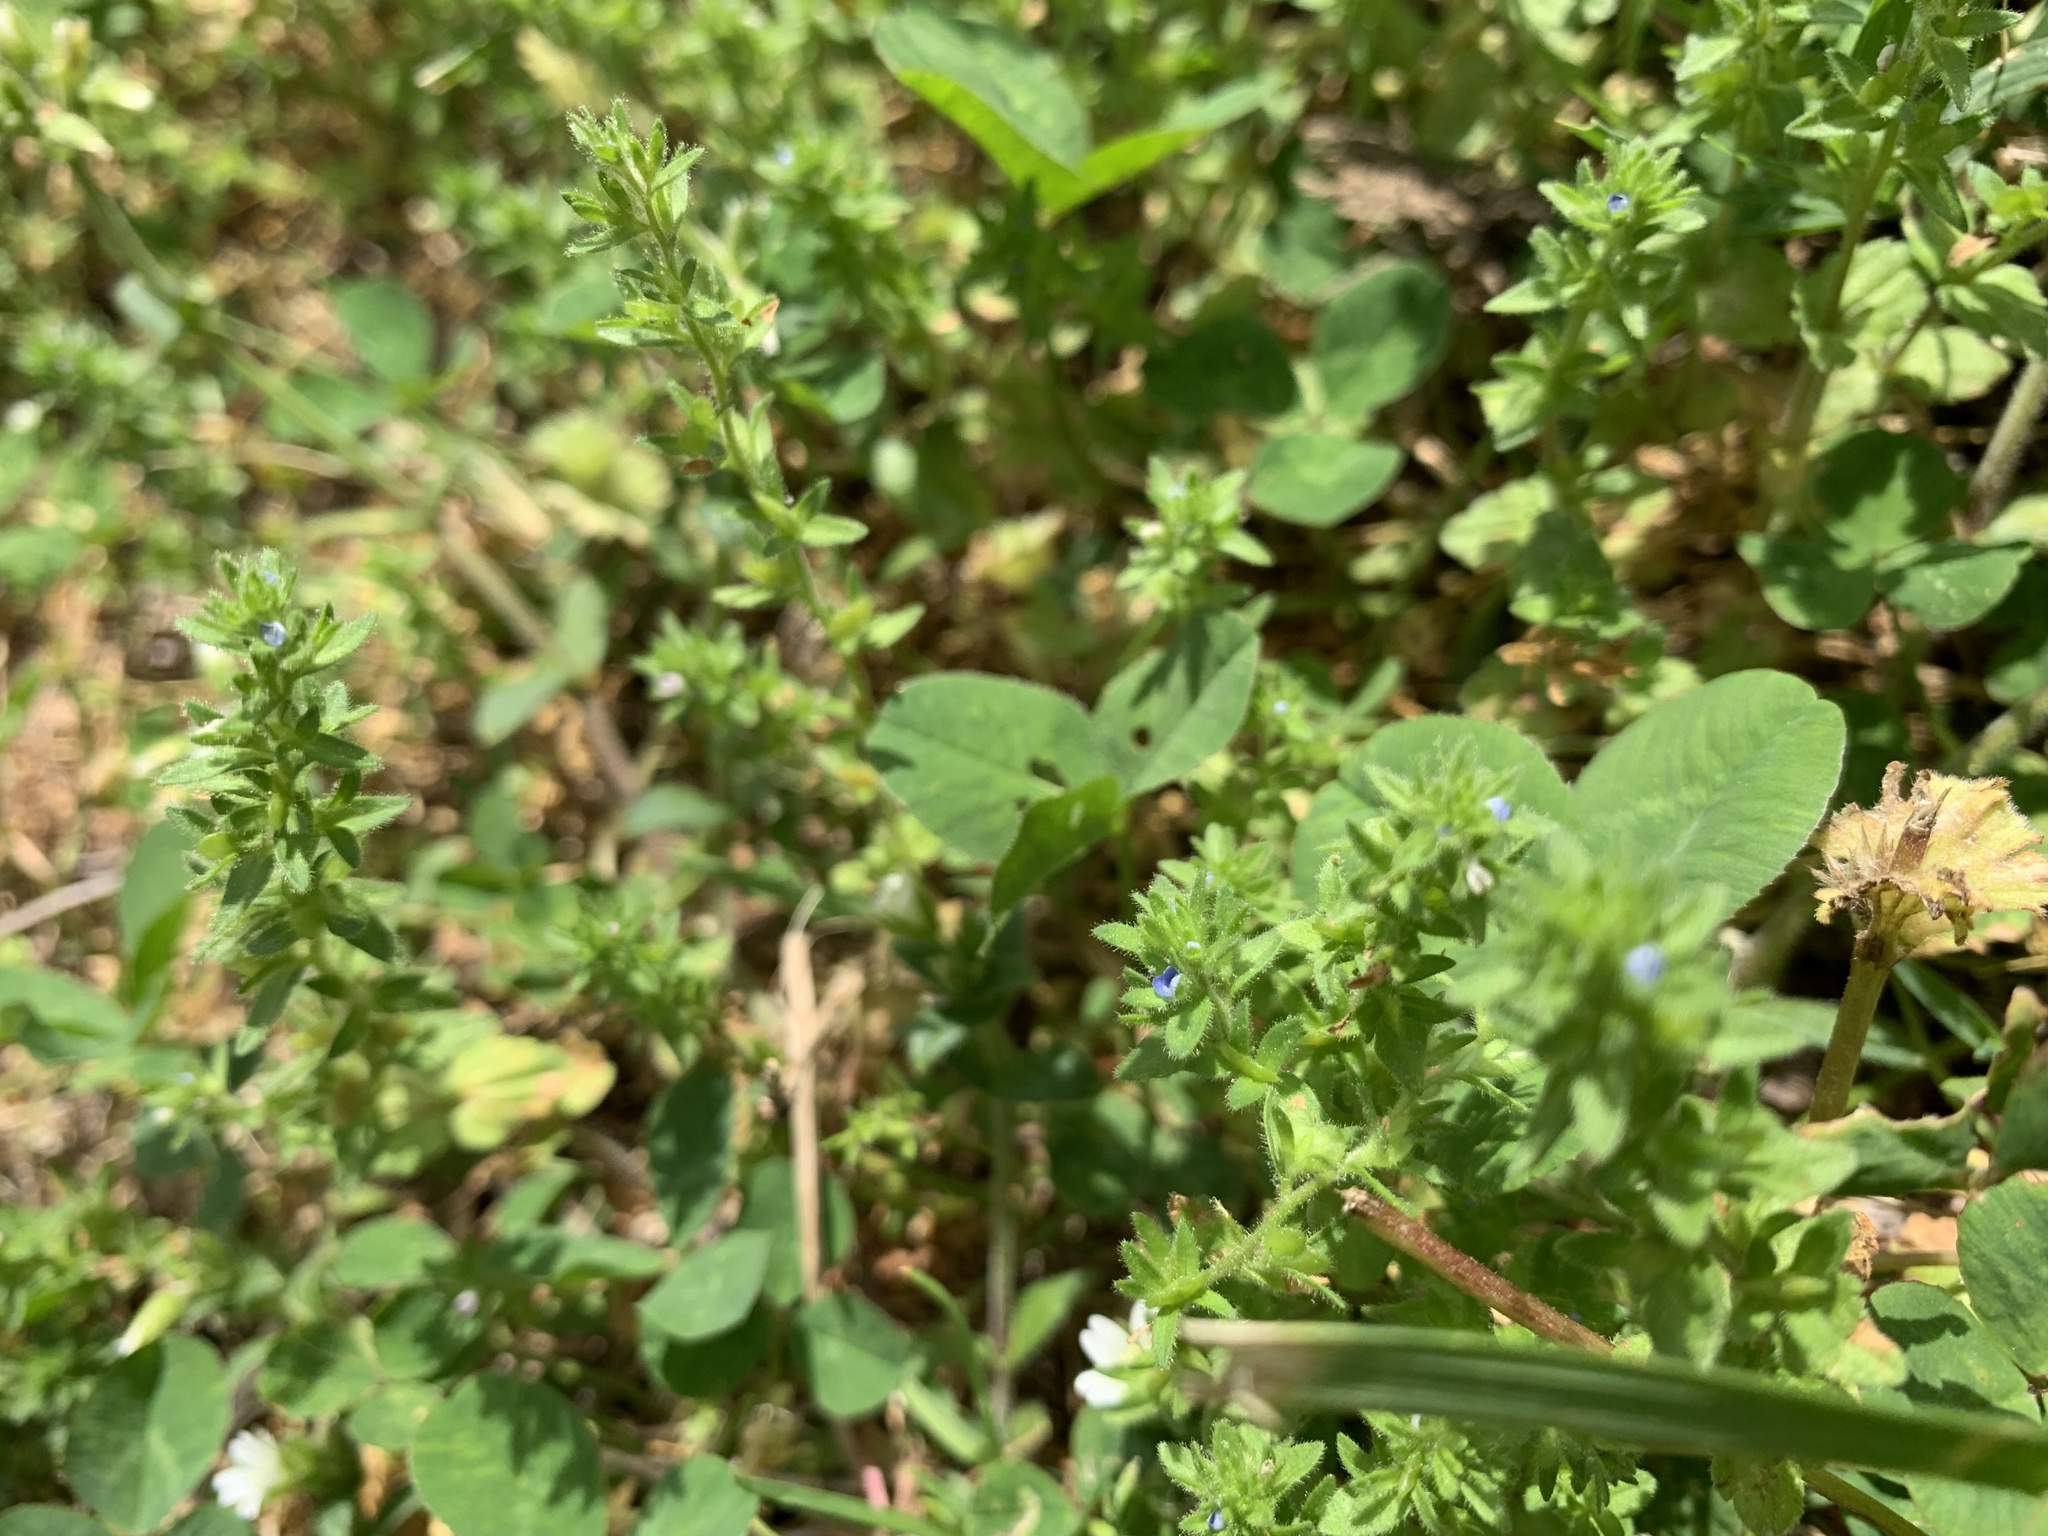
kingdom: Plantae
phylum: Tracheophyta
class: Magnoliopsida
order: Lamiales
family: Plantaginaceae
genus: Veronica
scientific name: Veronica arvensis
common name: Corn speedwell
